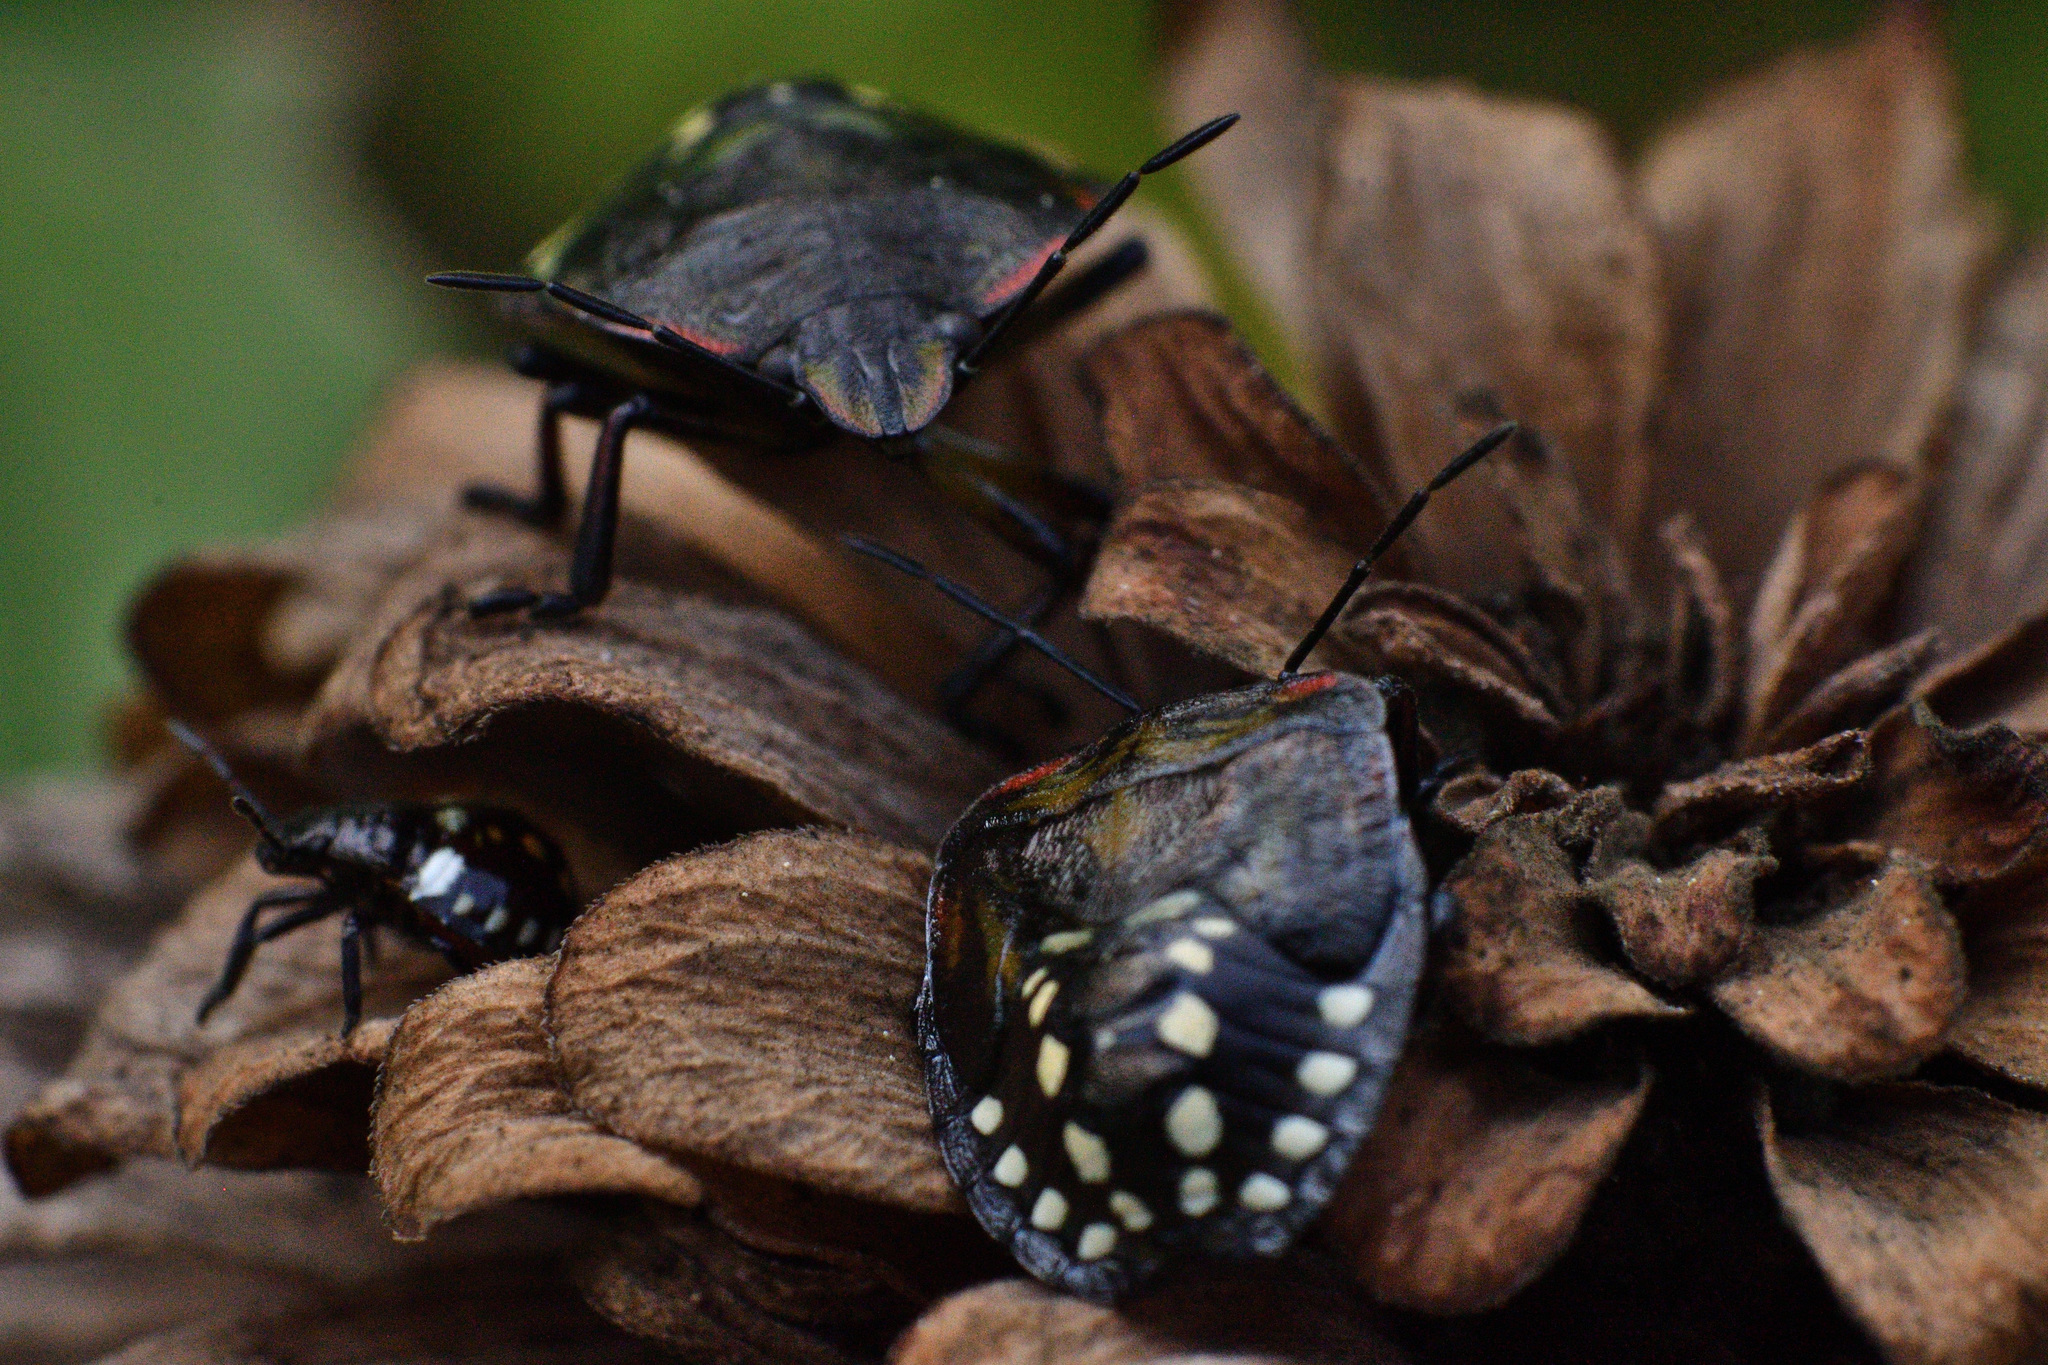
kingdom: Animalia
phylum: Arthropoda
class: Insecta
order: Hemiptera
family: Pentatomidae
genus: Nezara
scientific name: Nezara viridula
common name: Southern green stink bug
